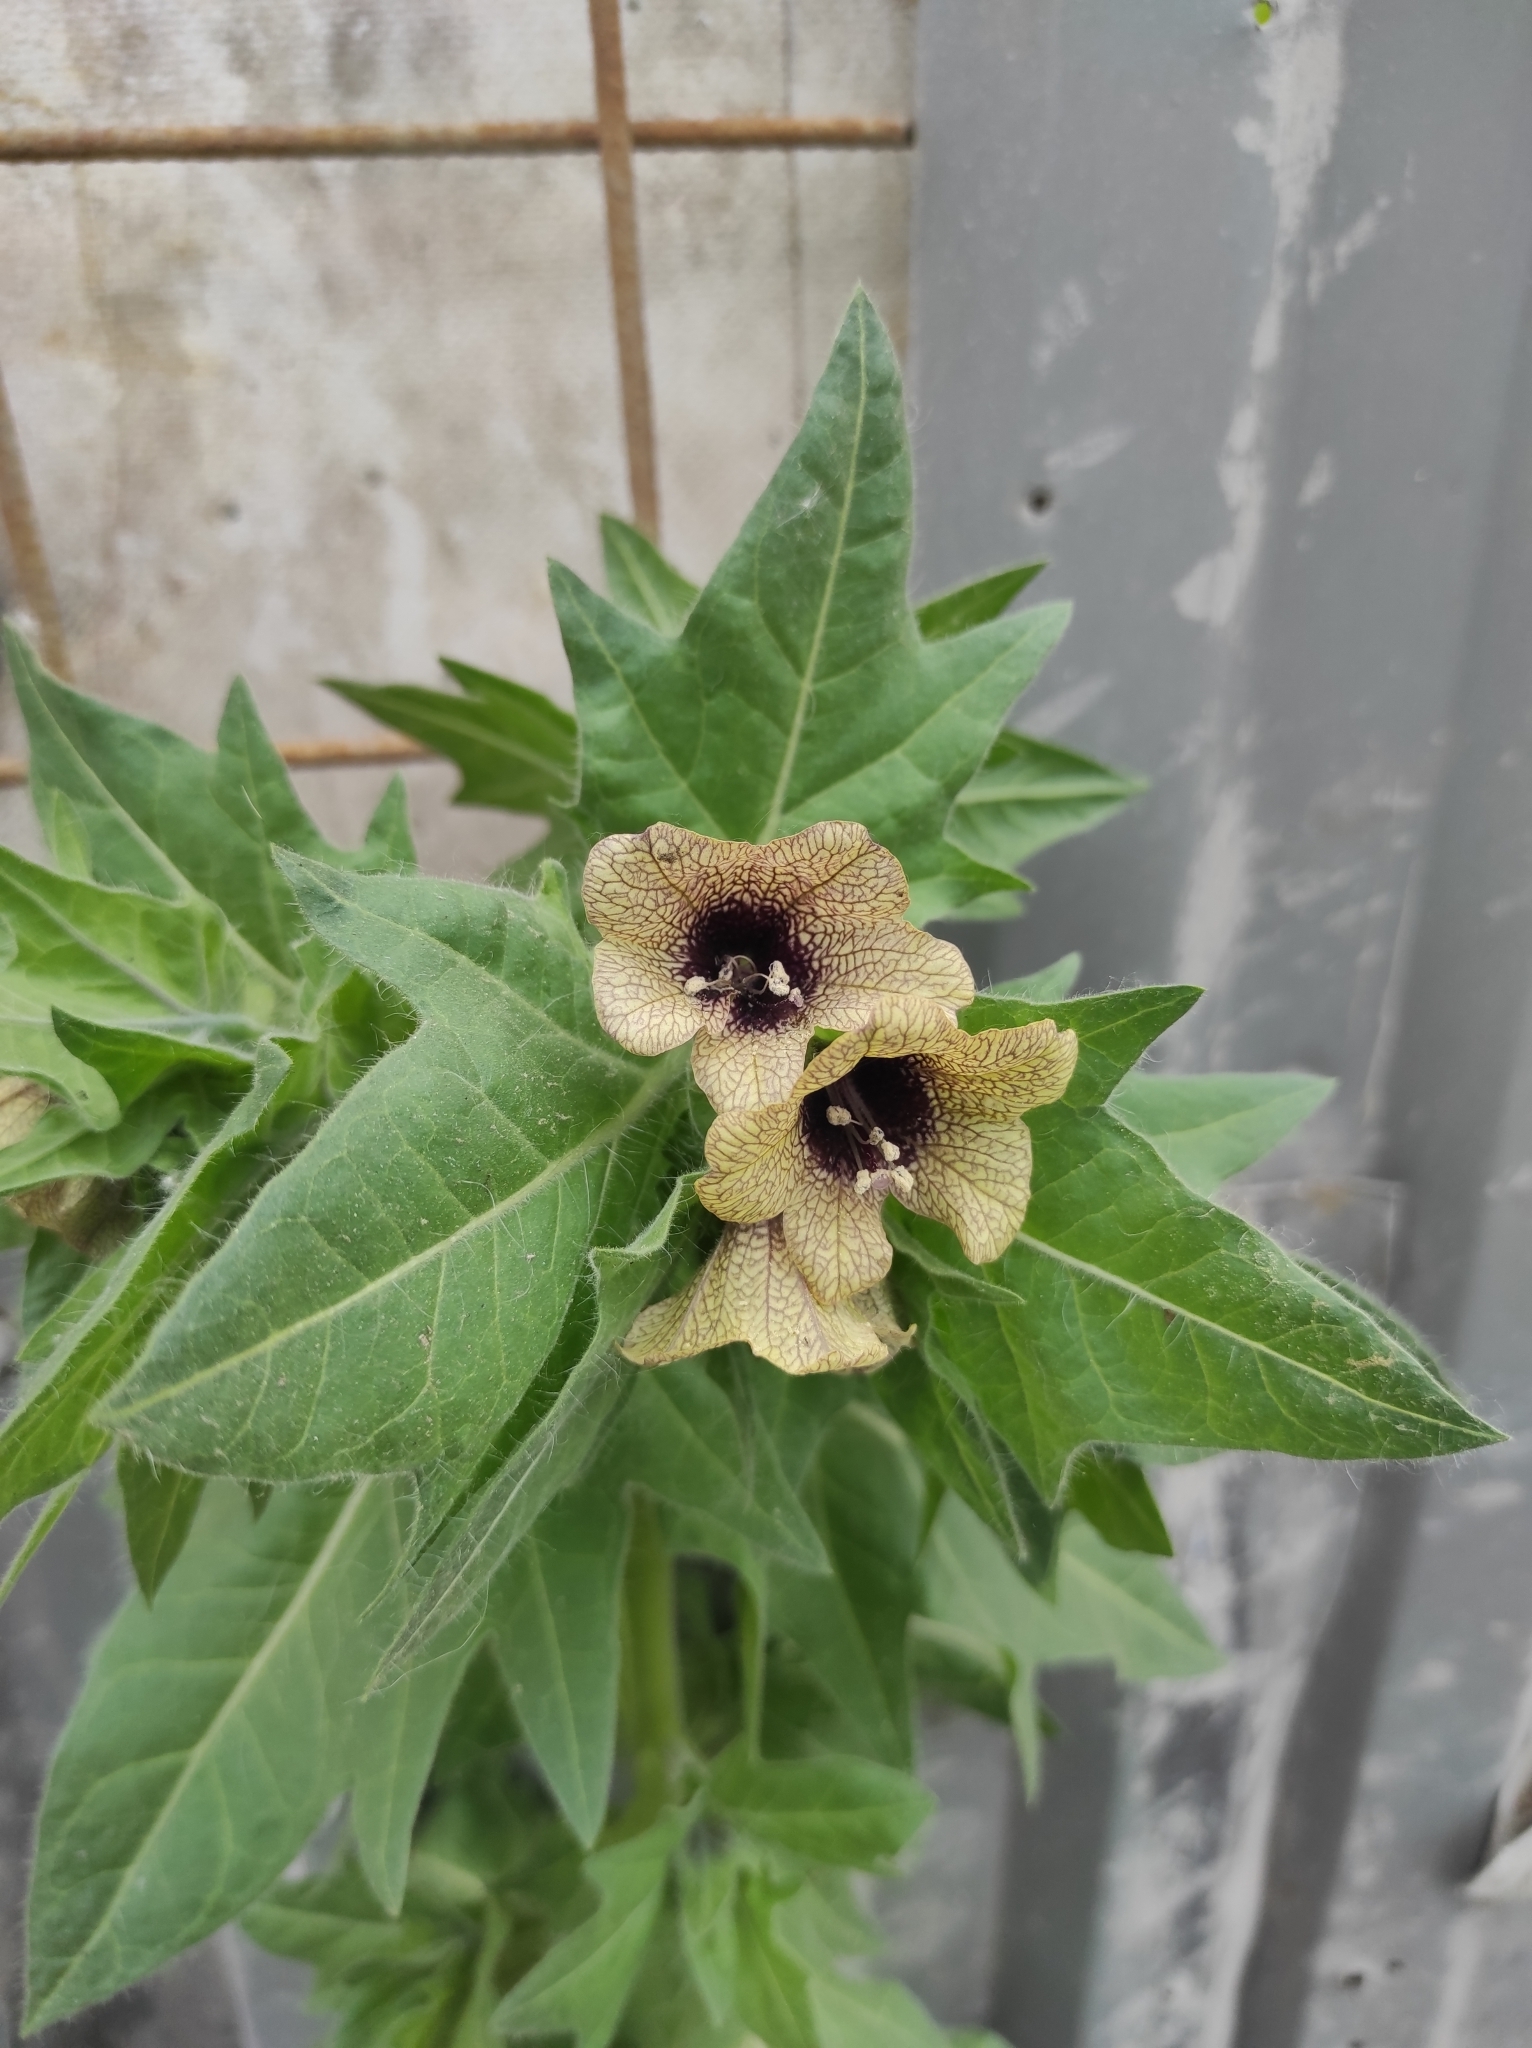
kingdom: Plantae
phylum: Tracheophyta
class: Magnoliopsida
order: Solanales
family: Solanaceae
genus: Hyoscyamus
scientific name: Hyoscyamus niger
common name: Henbane
